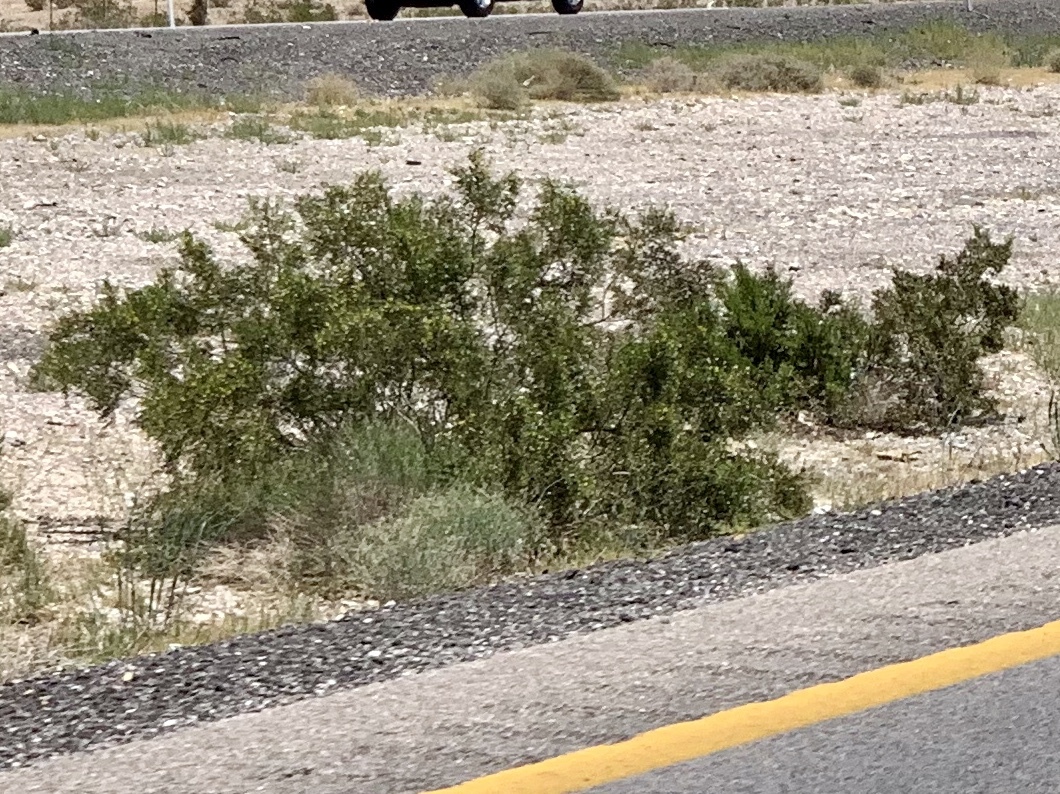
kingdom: Plantae
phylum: Tracheophyta
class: Magnoliopsida
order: Zygophyllales
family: Zygophyllaceae
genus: Larrea
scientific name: Larrea tridentata
